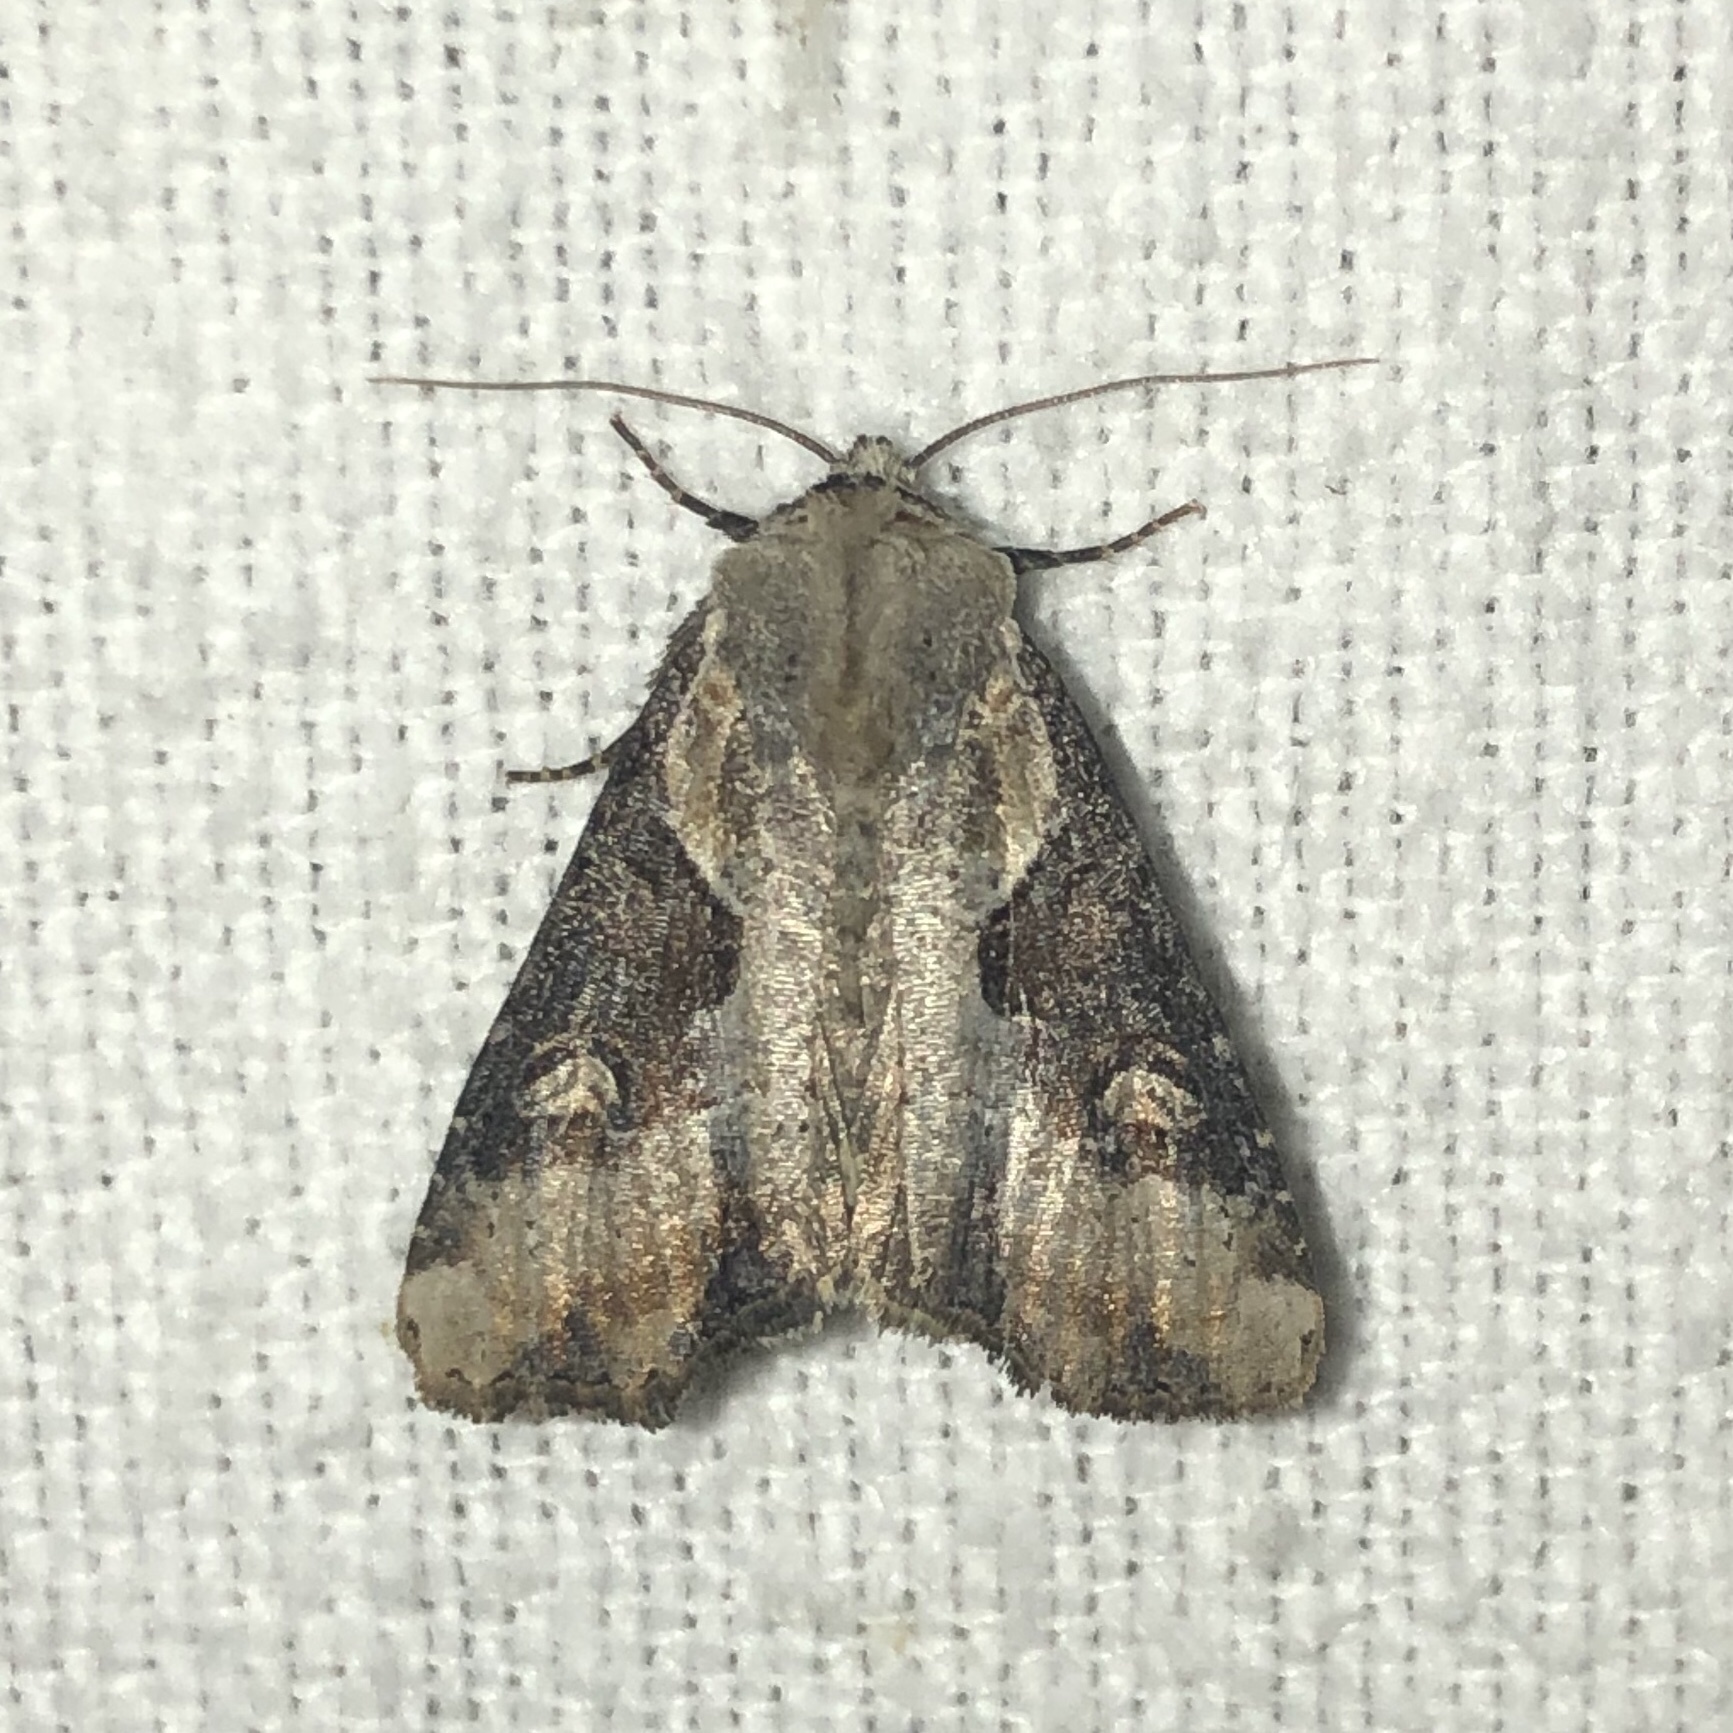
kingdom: Animalia
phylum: Arthropoda
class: Insecta
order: Lepidoptera
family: Noctuidae
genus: Lateroligia
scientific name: Lateroligia ophiogramma
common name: Double lobed
